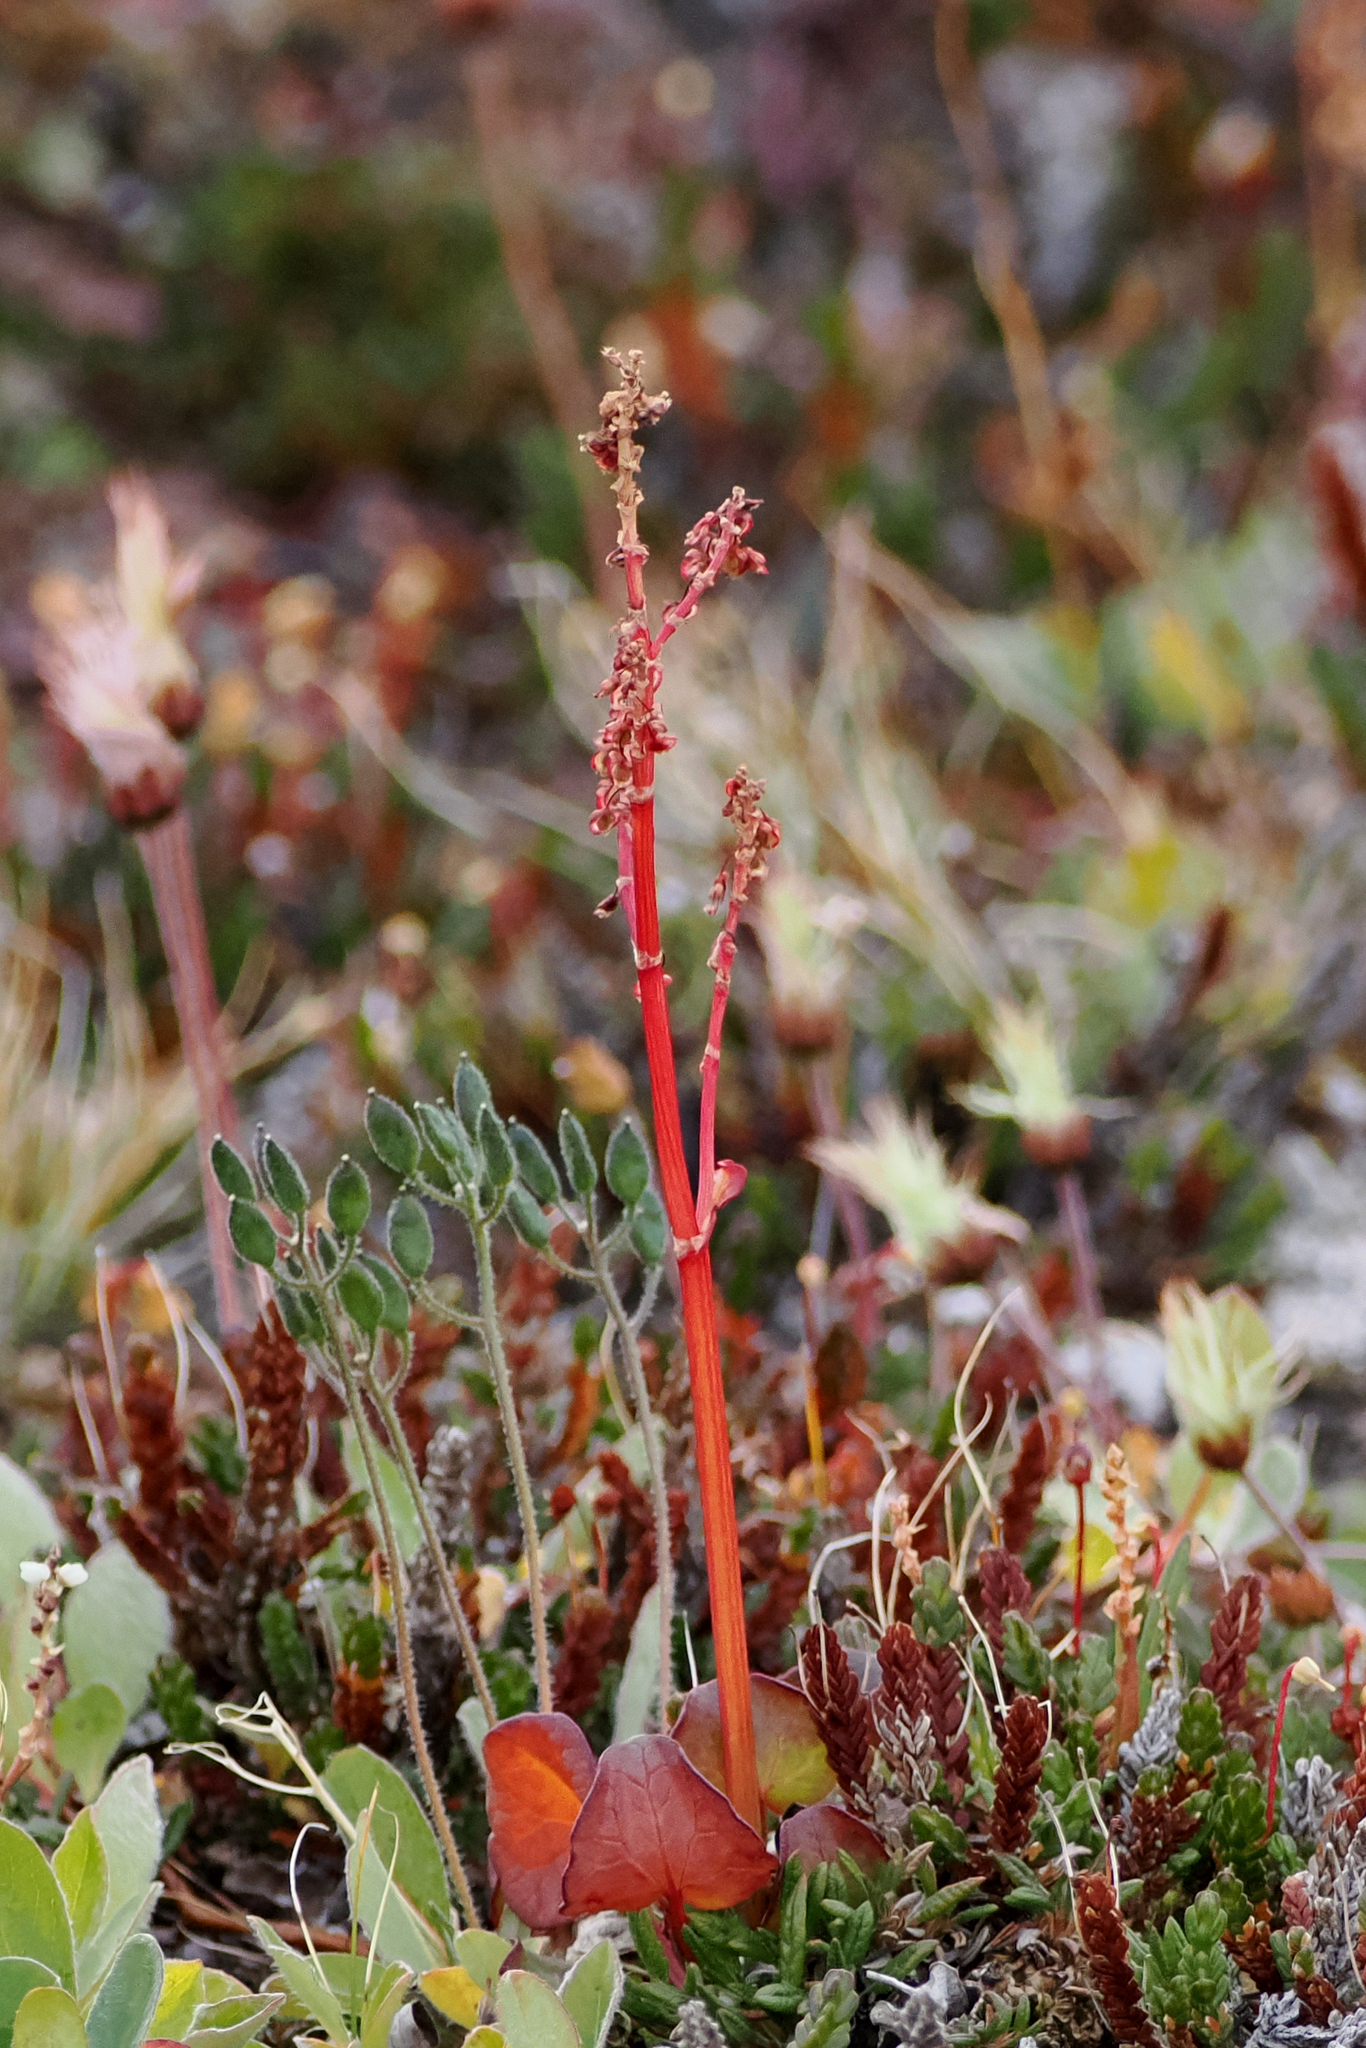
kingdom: Plantae
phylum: Tracheophyta
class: Magnoliopsida
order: Caryophyllales
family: Polygonaceae
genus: Oxyria
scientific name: Oxyria digyna
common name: Alpine mountain-sorrel
